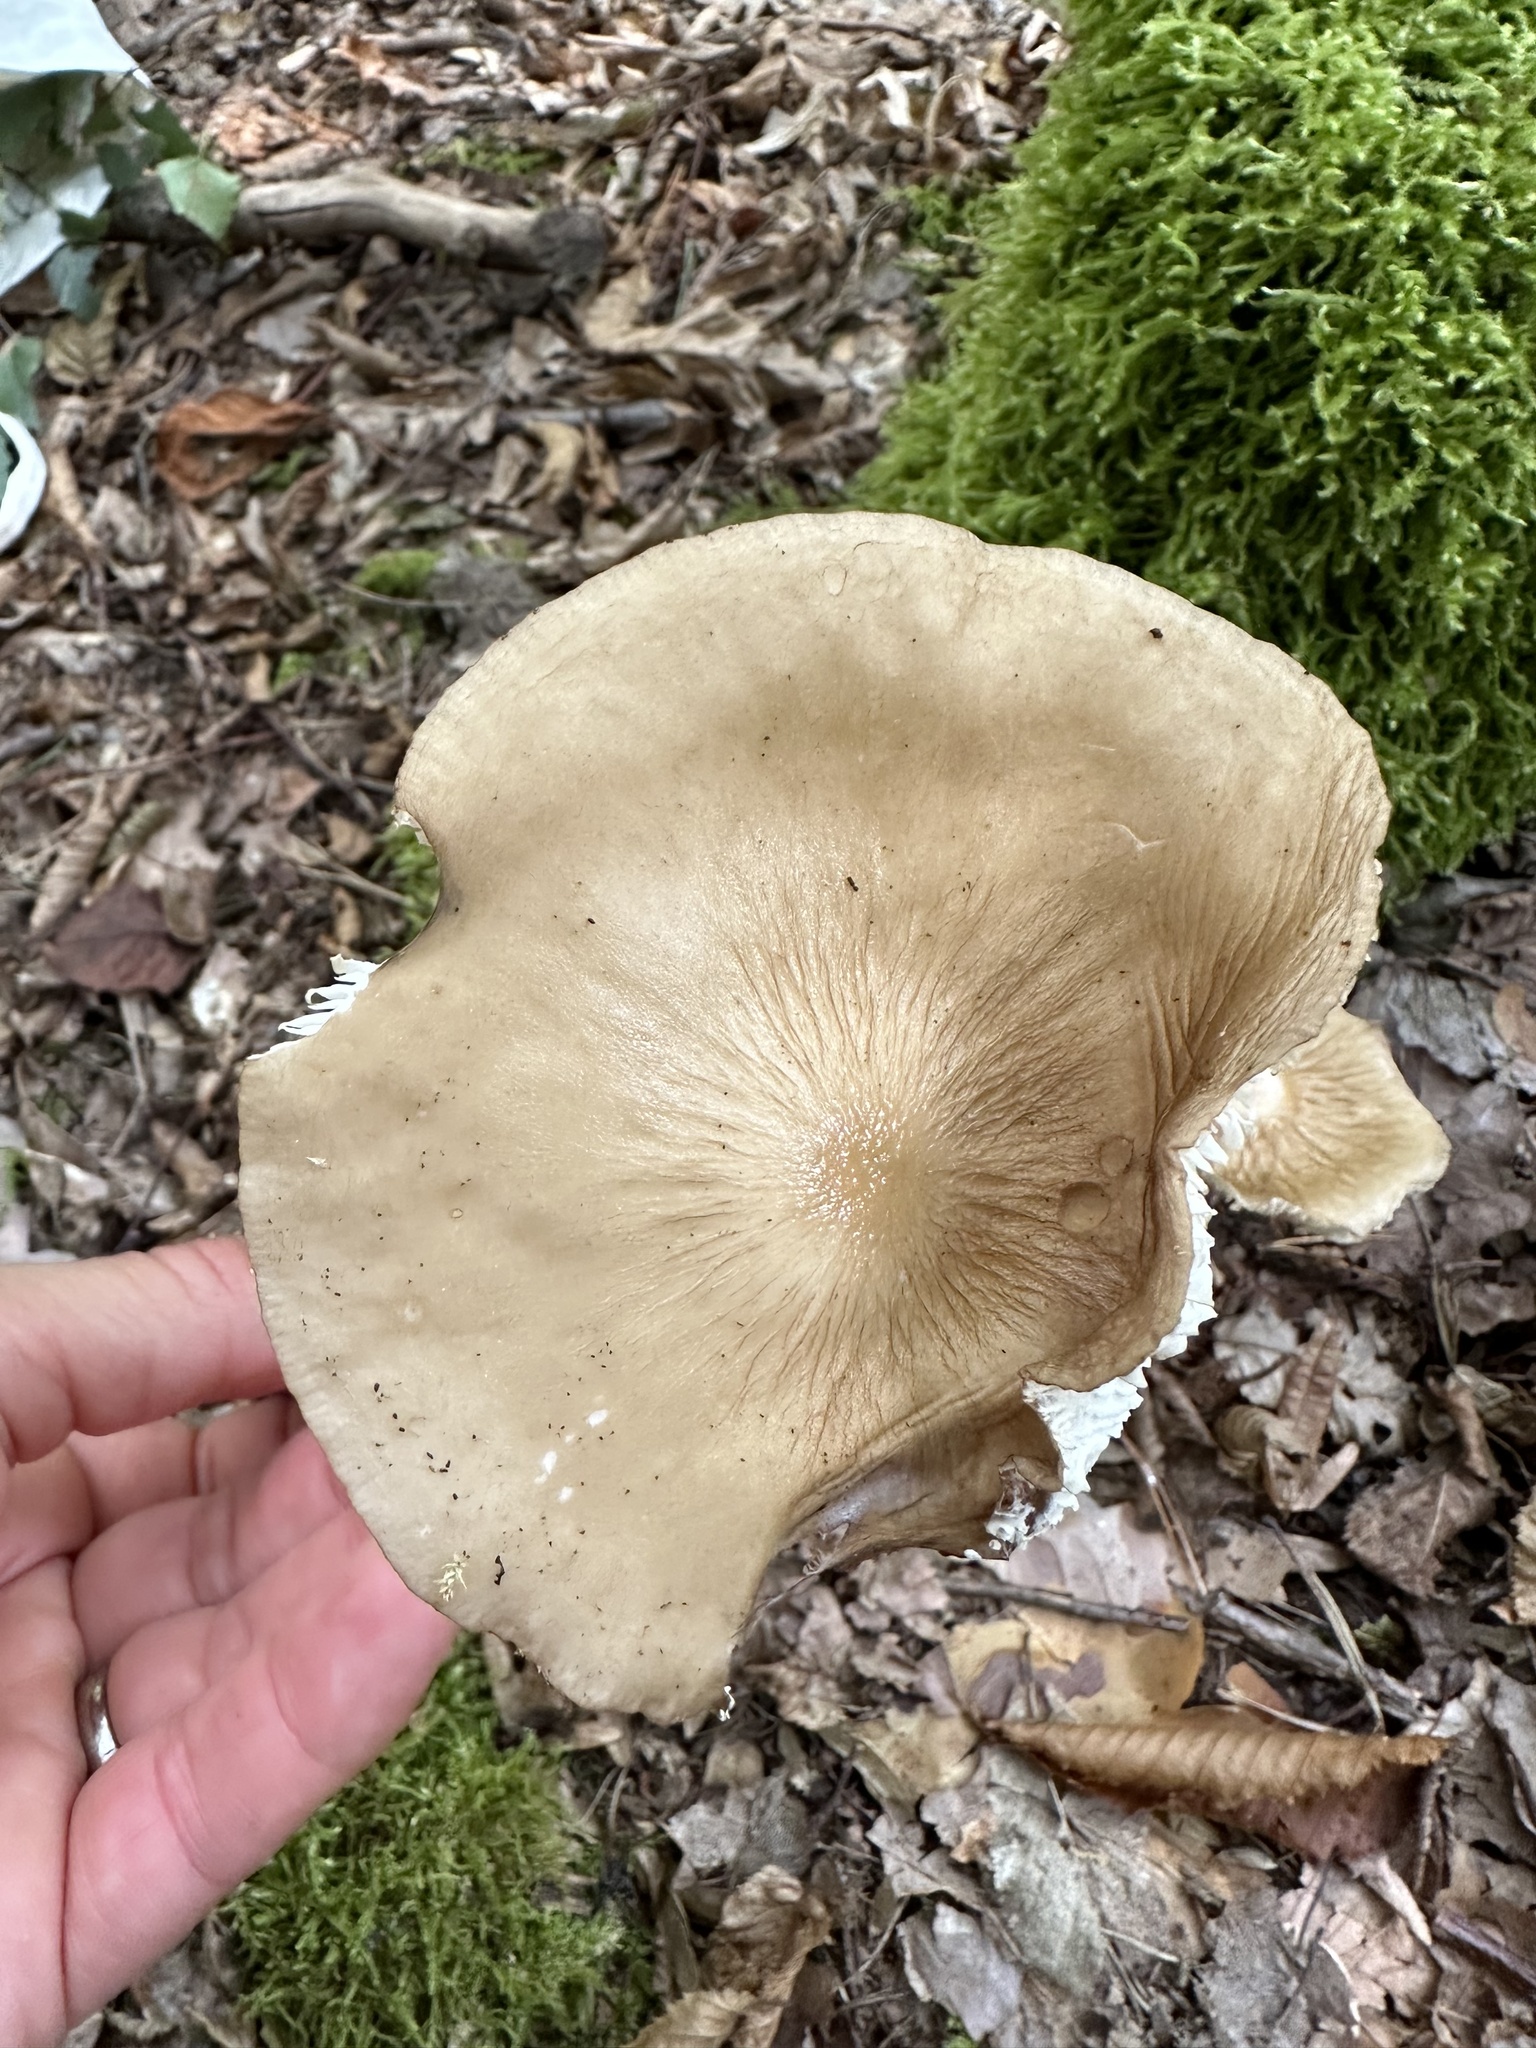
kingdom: Fungi
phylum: Basidiomycota
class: Agaricomycetes
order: Agaricales
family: Physalacriaceae
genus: Hymenopellis
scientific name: Hymenopellis radicata
